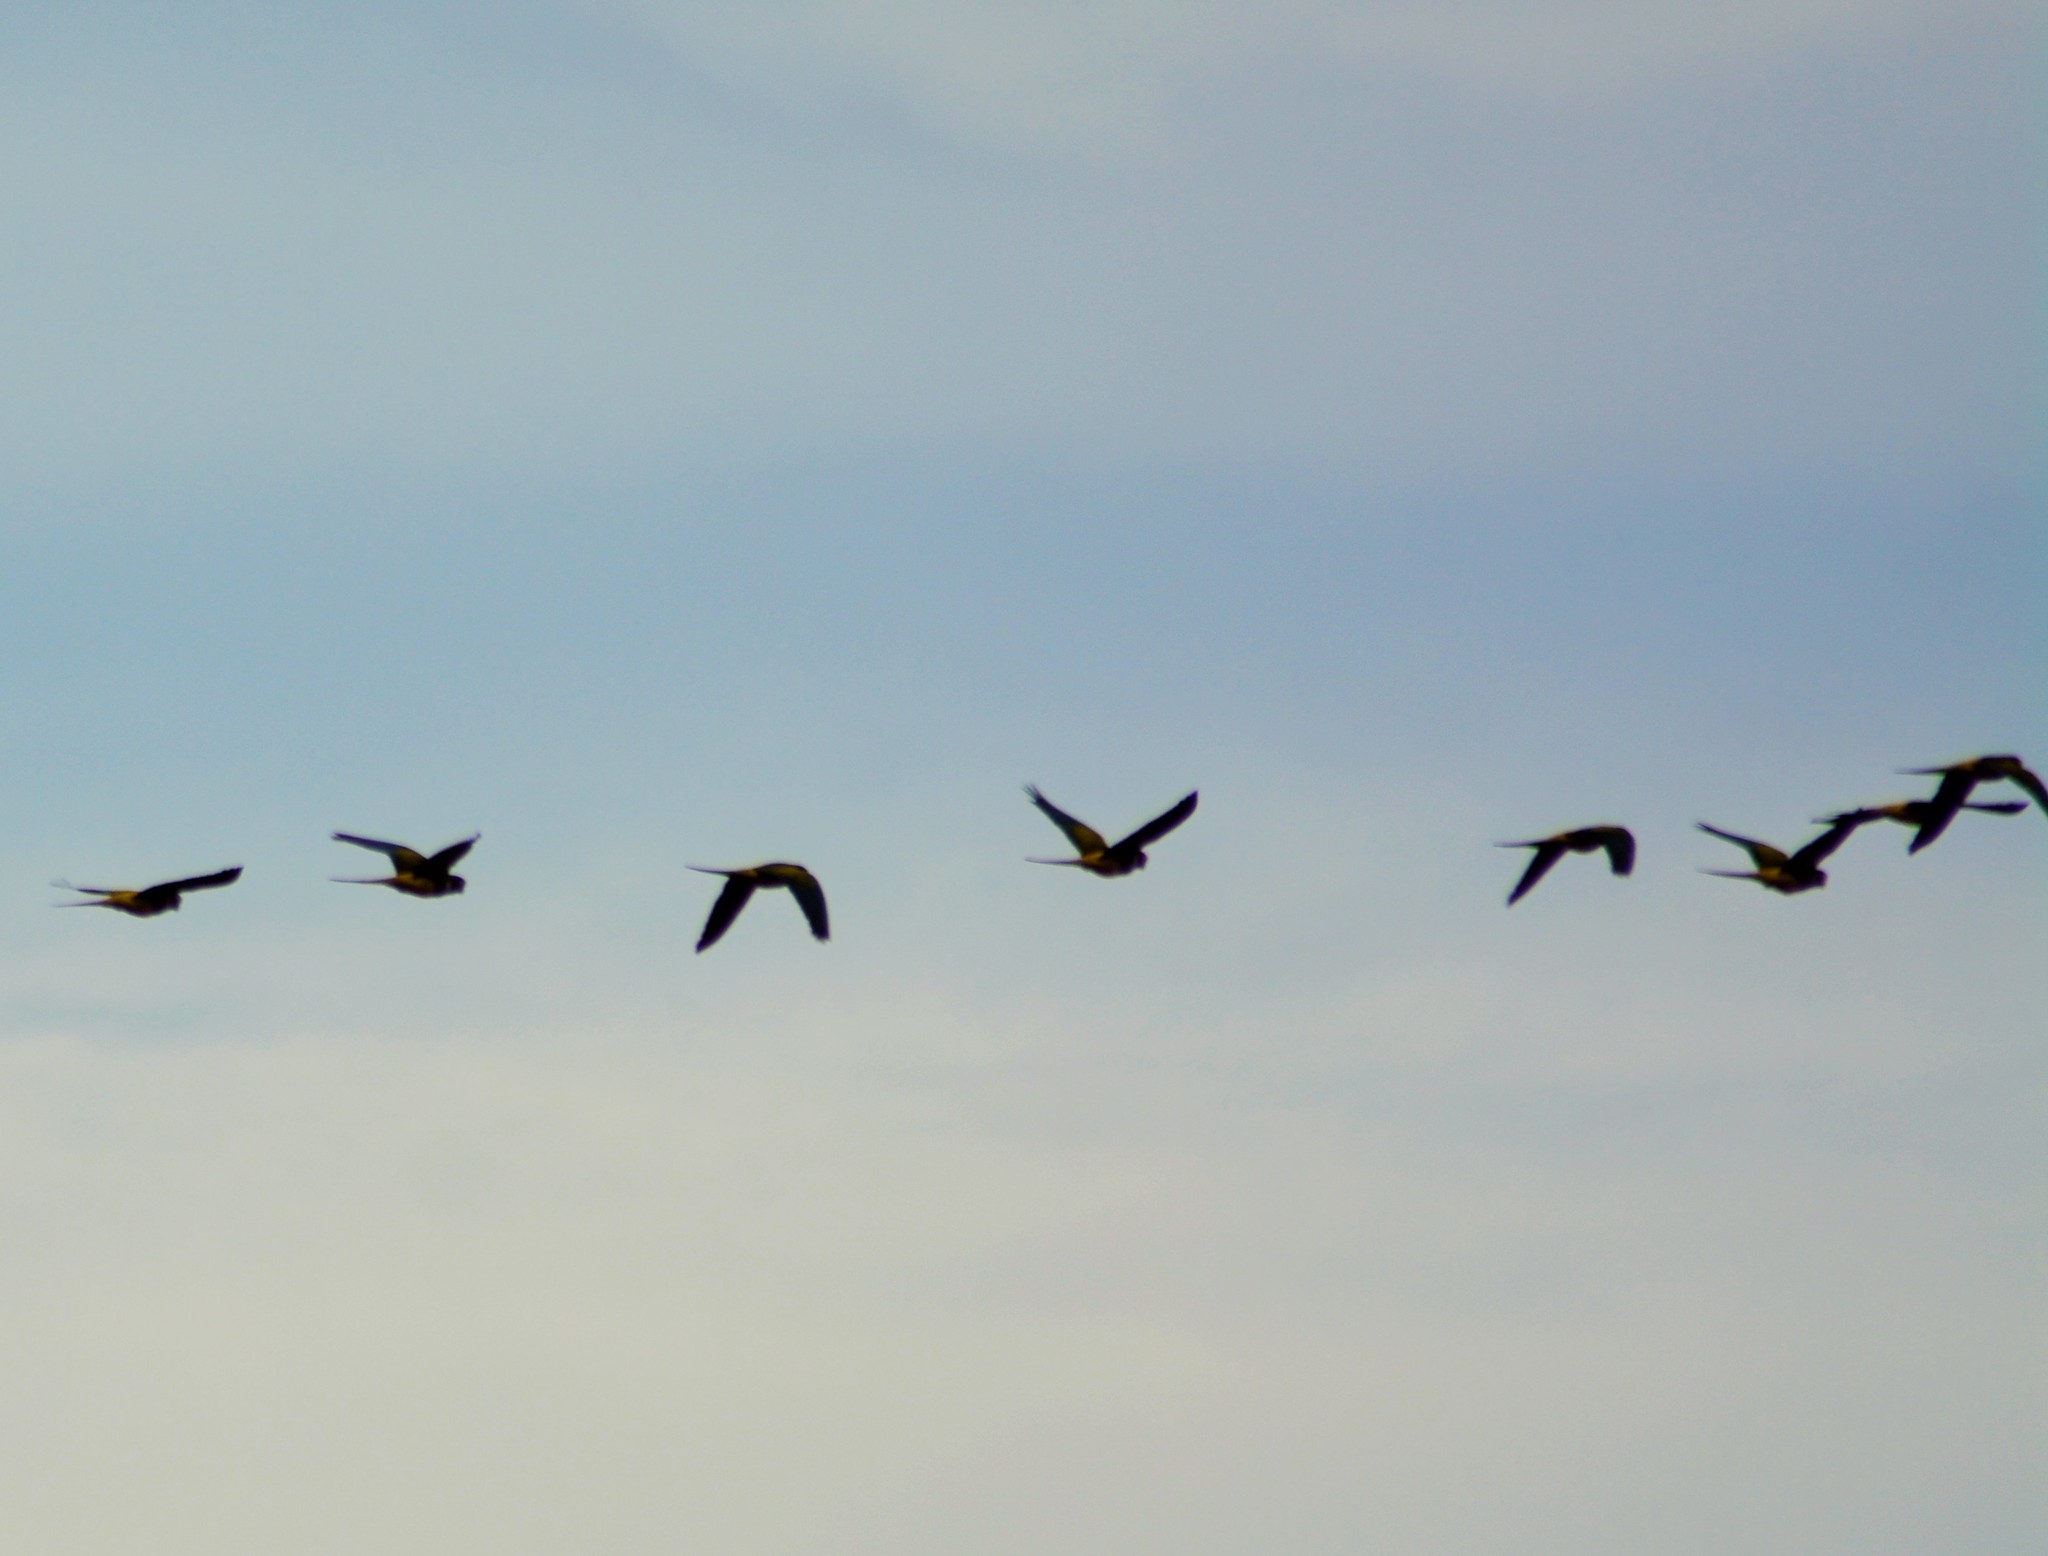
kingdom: Animalia
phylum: Chordata
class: Aves
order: Psittaciformes
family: Psittacidae
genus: Cyanoliseus
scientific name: Cyanoliseus patagonus
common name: Burrowing parrot
